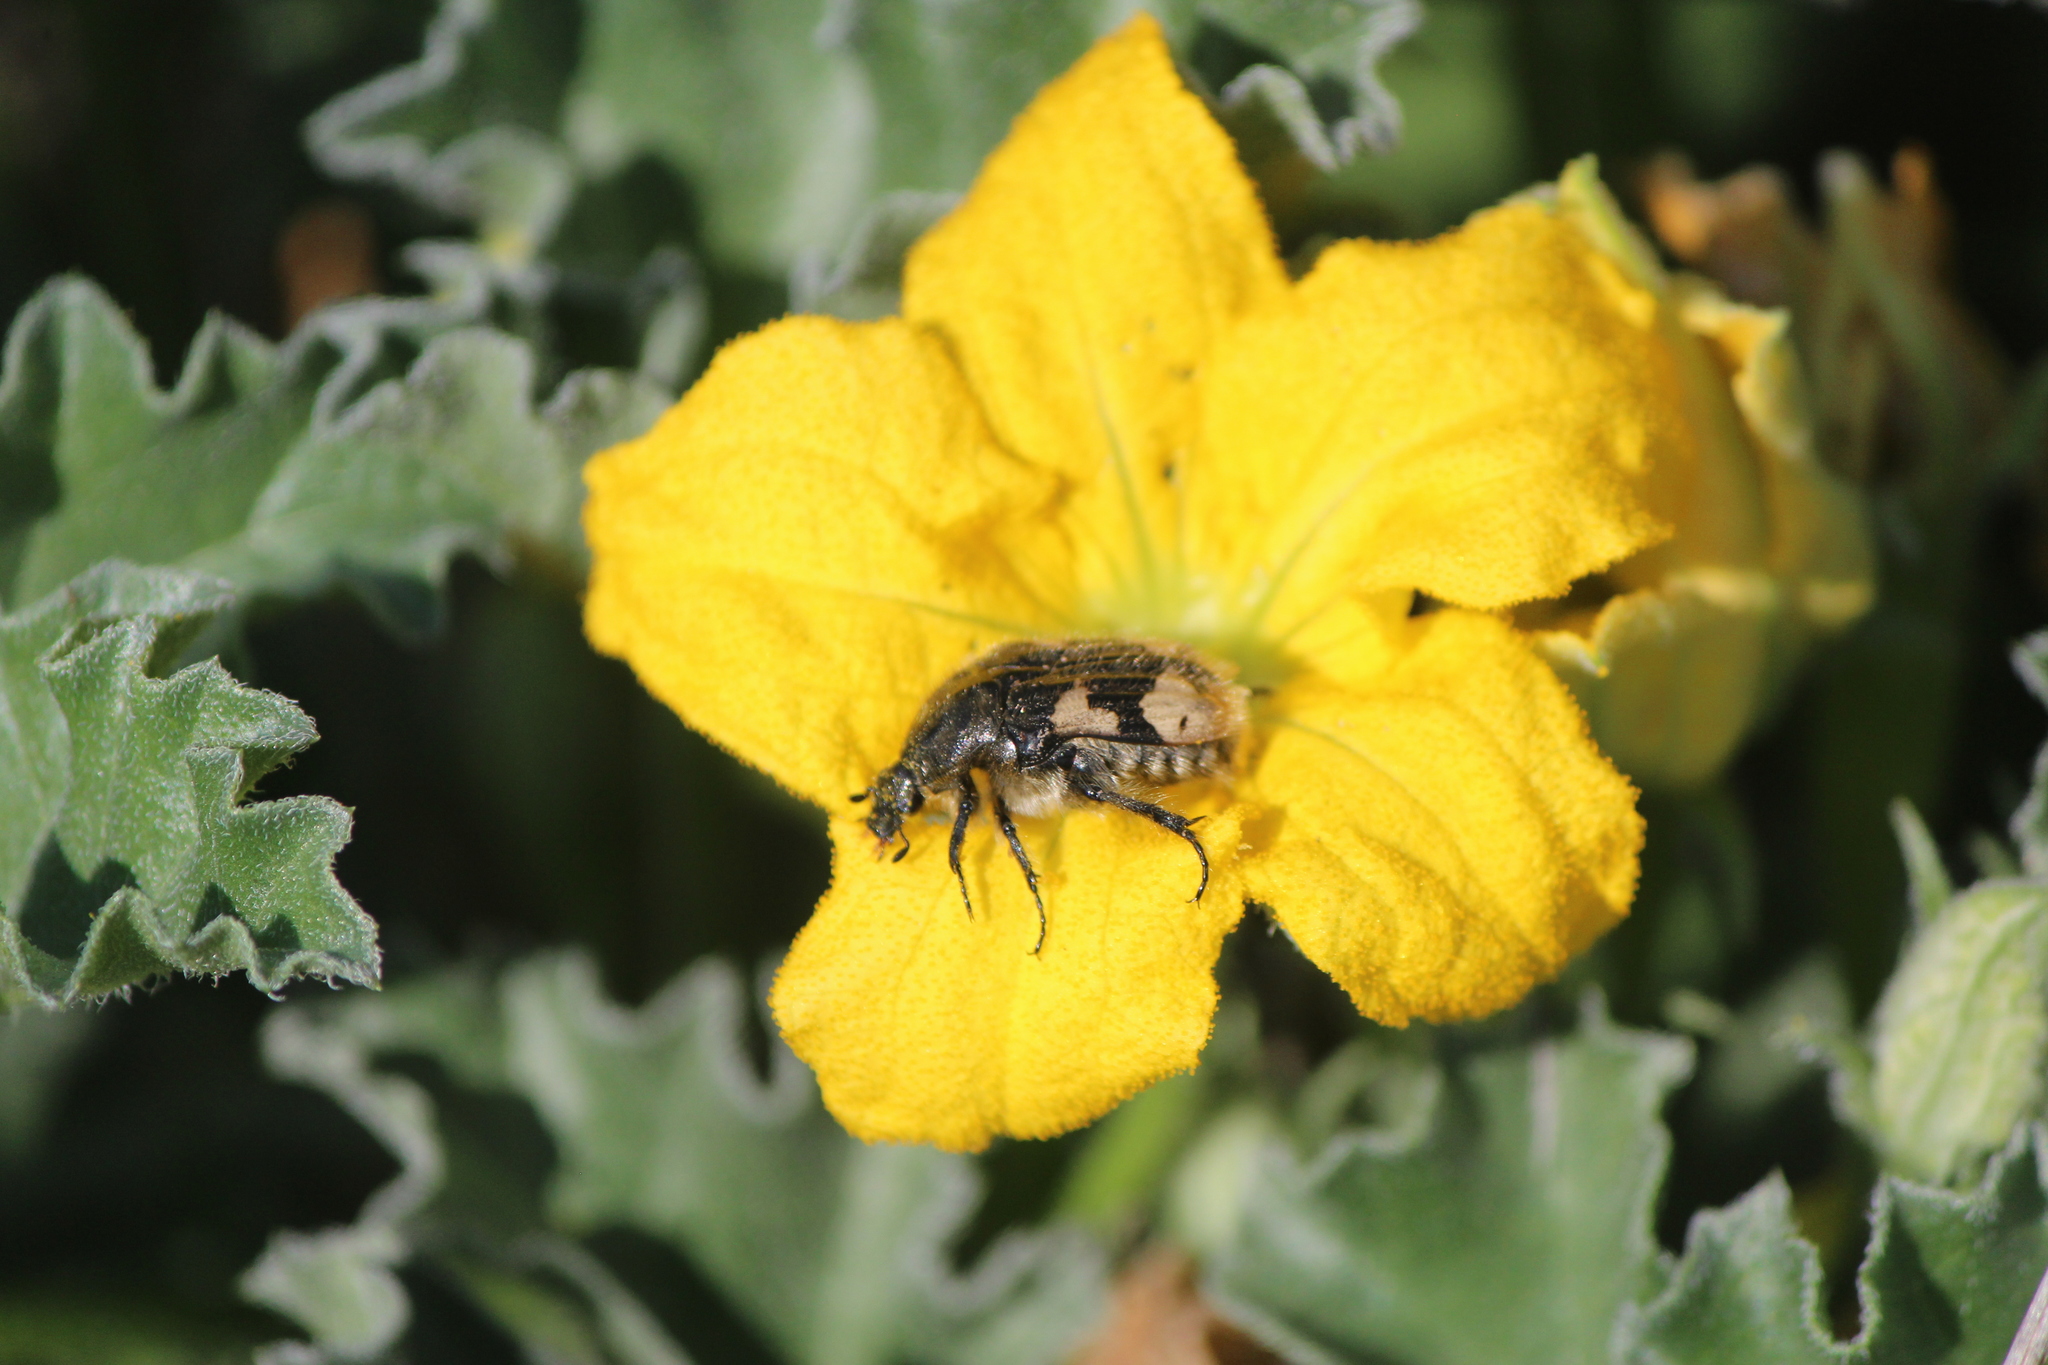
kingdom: Animalia
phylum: Arthropoda
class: Insecta
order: Coleoptera
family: Scarabaeidae
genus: Euphoria
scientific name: Euphoria basalis
